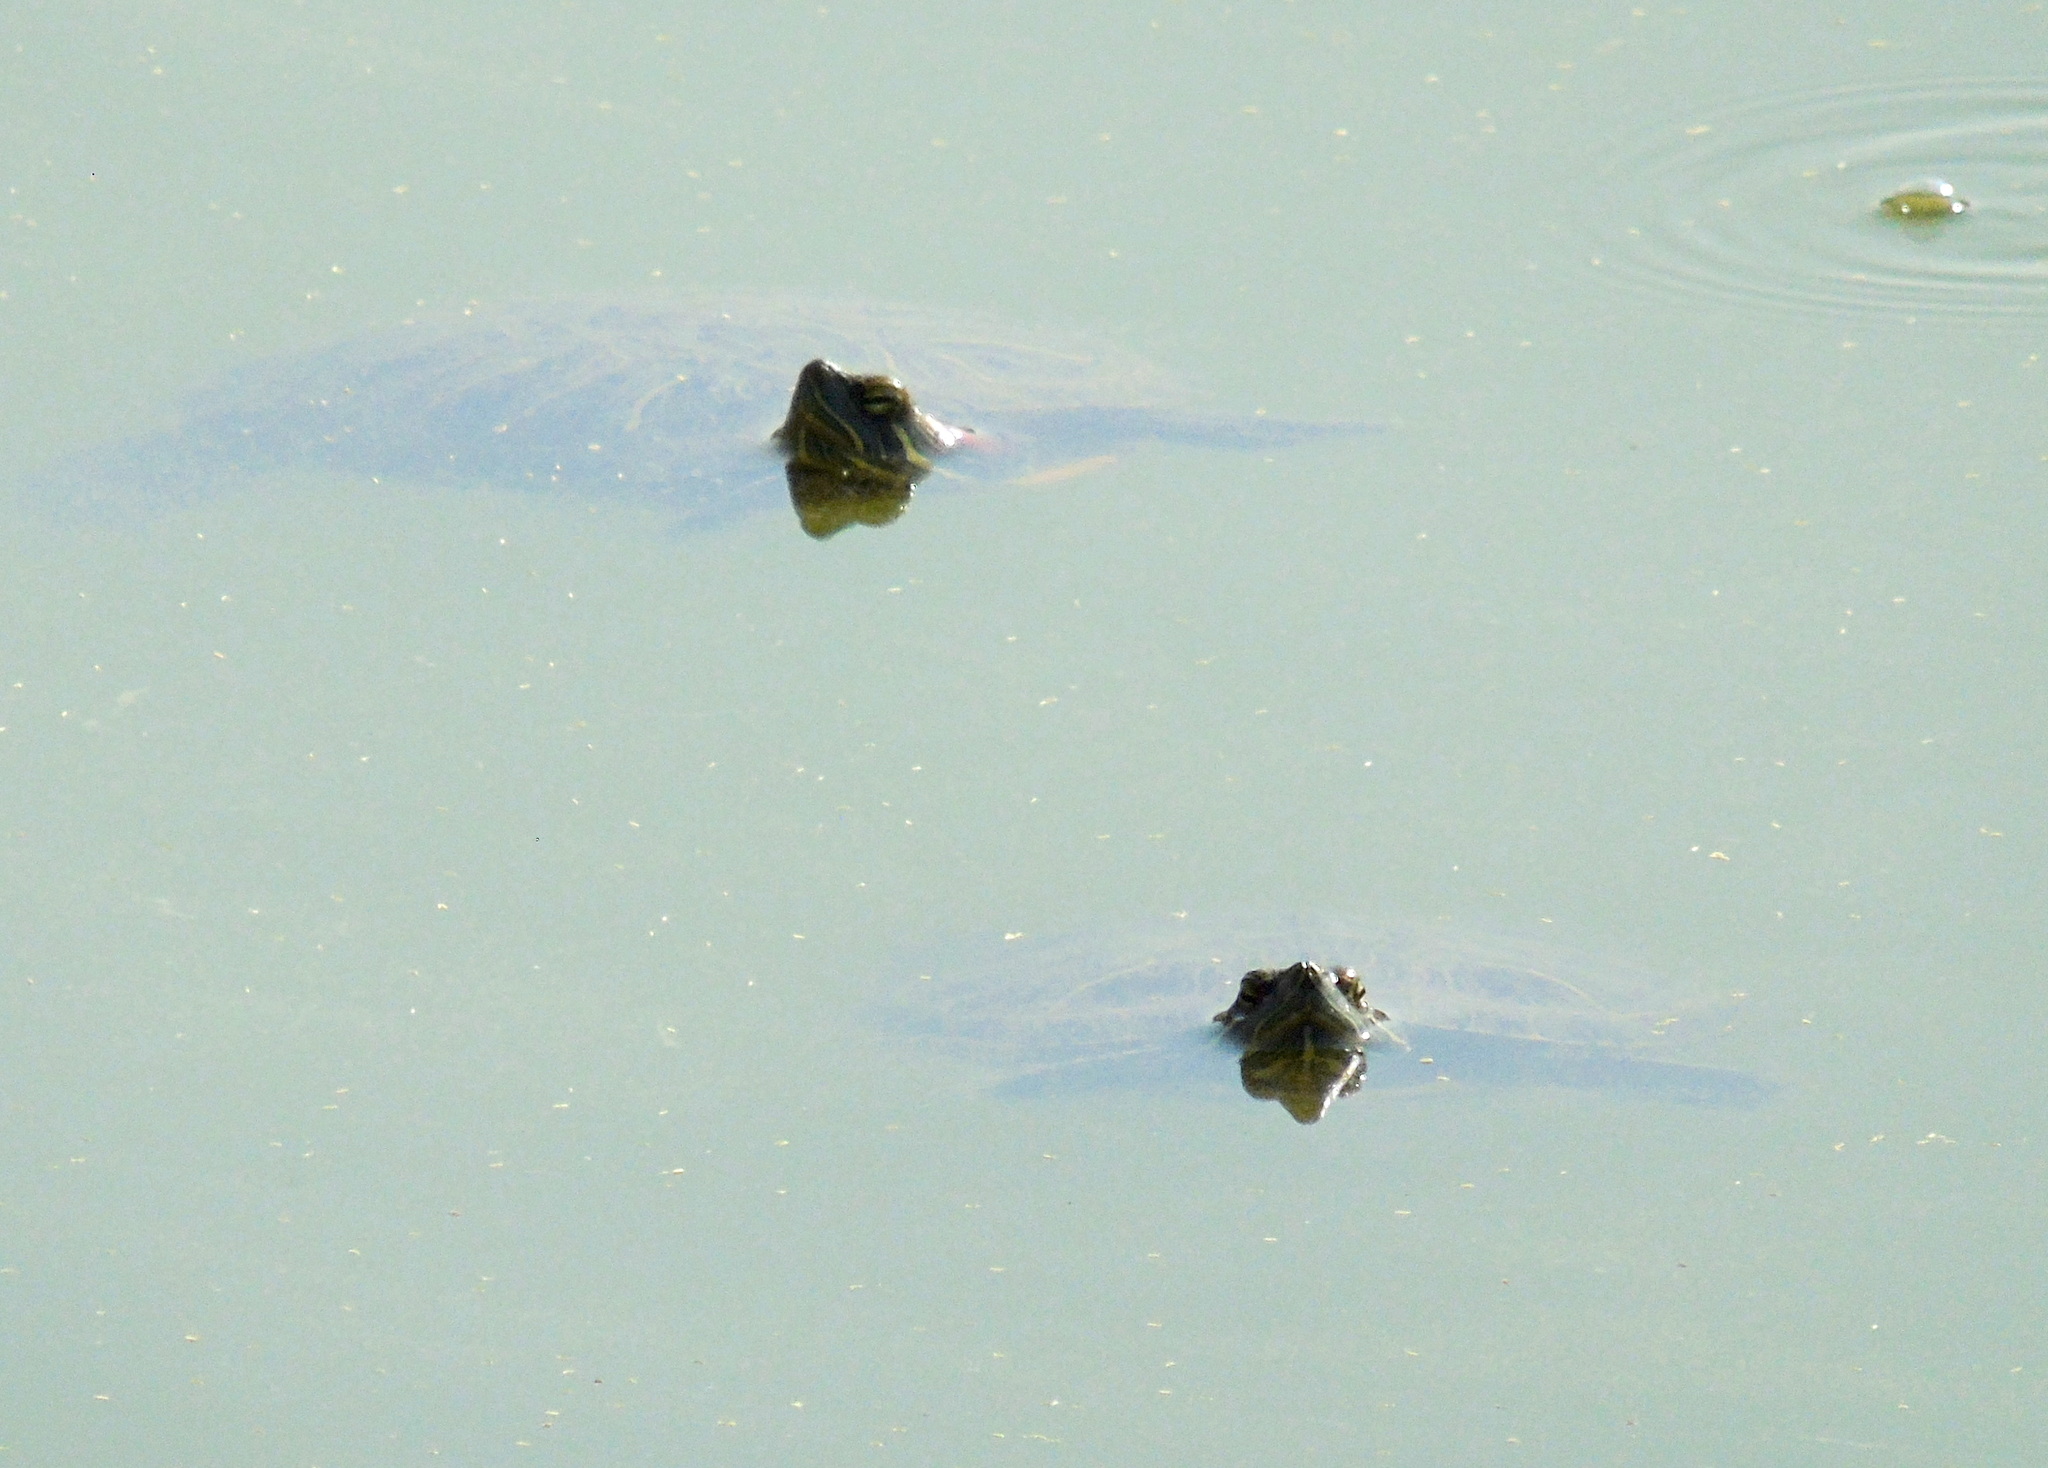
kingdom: Animalia
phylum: Chordata
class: Testudines
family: Emydidae
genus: Trachemys
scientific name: Trachemys scripta
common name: Slider
